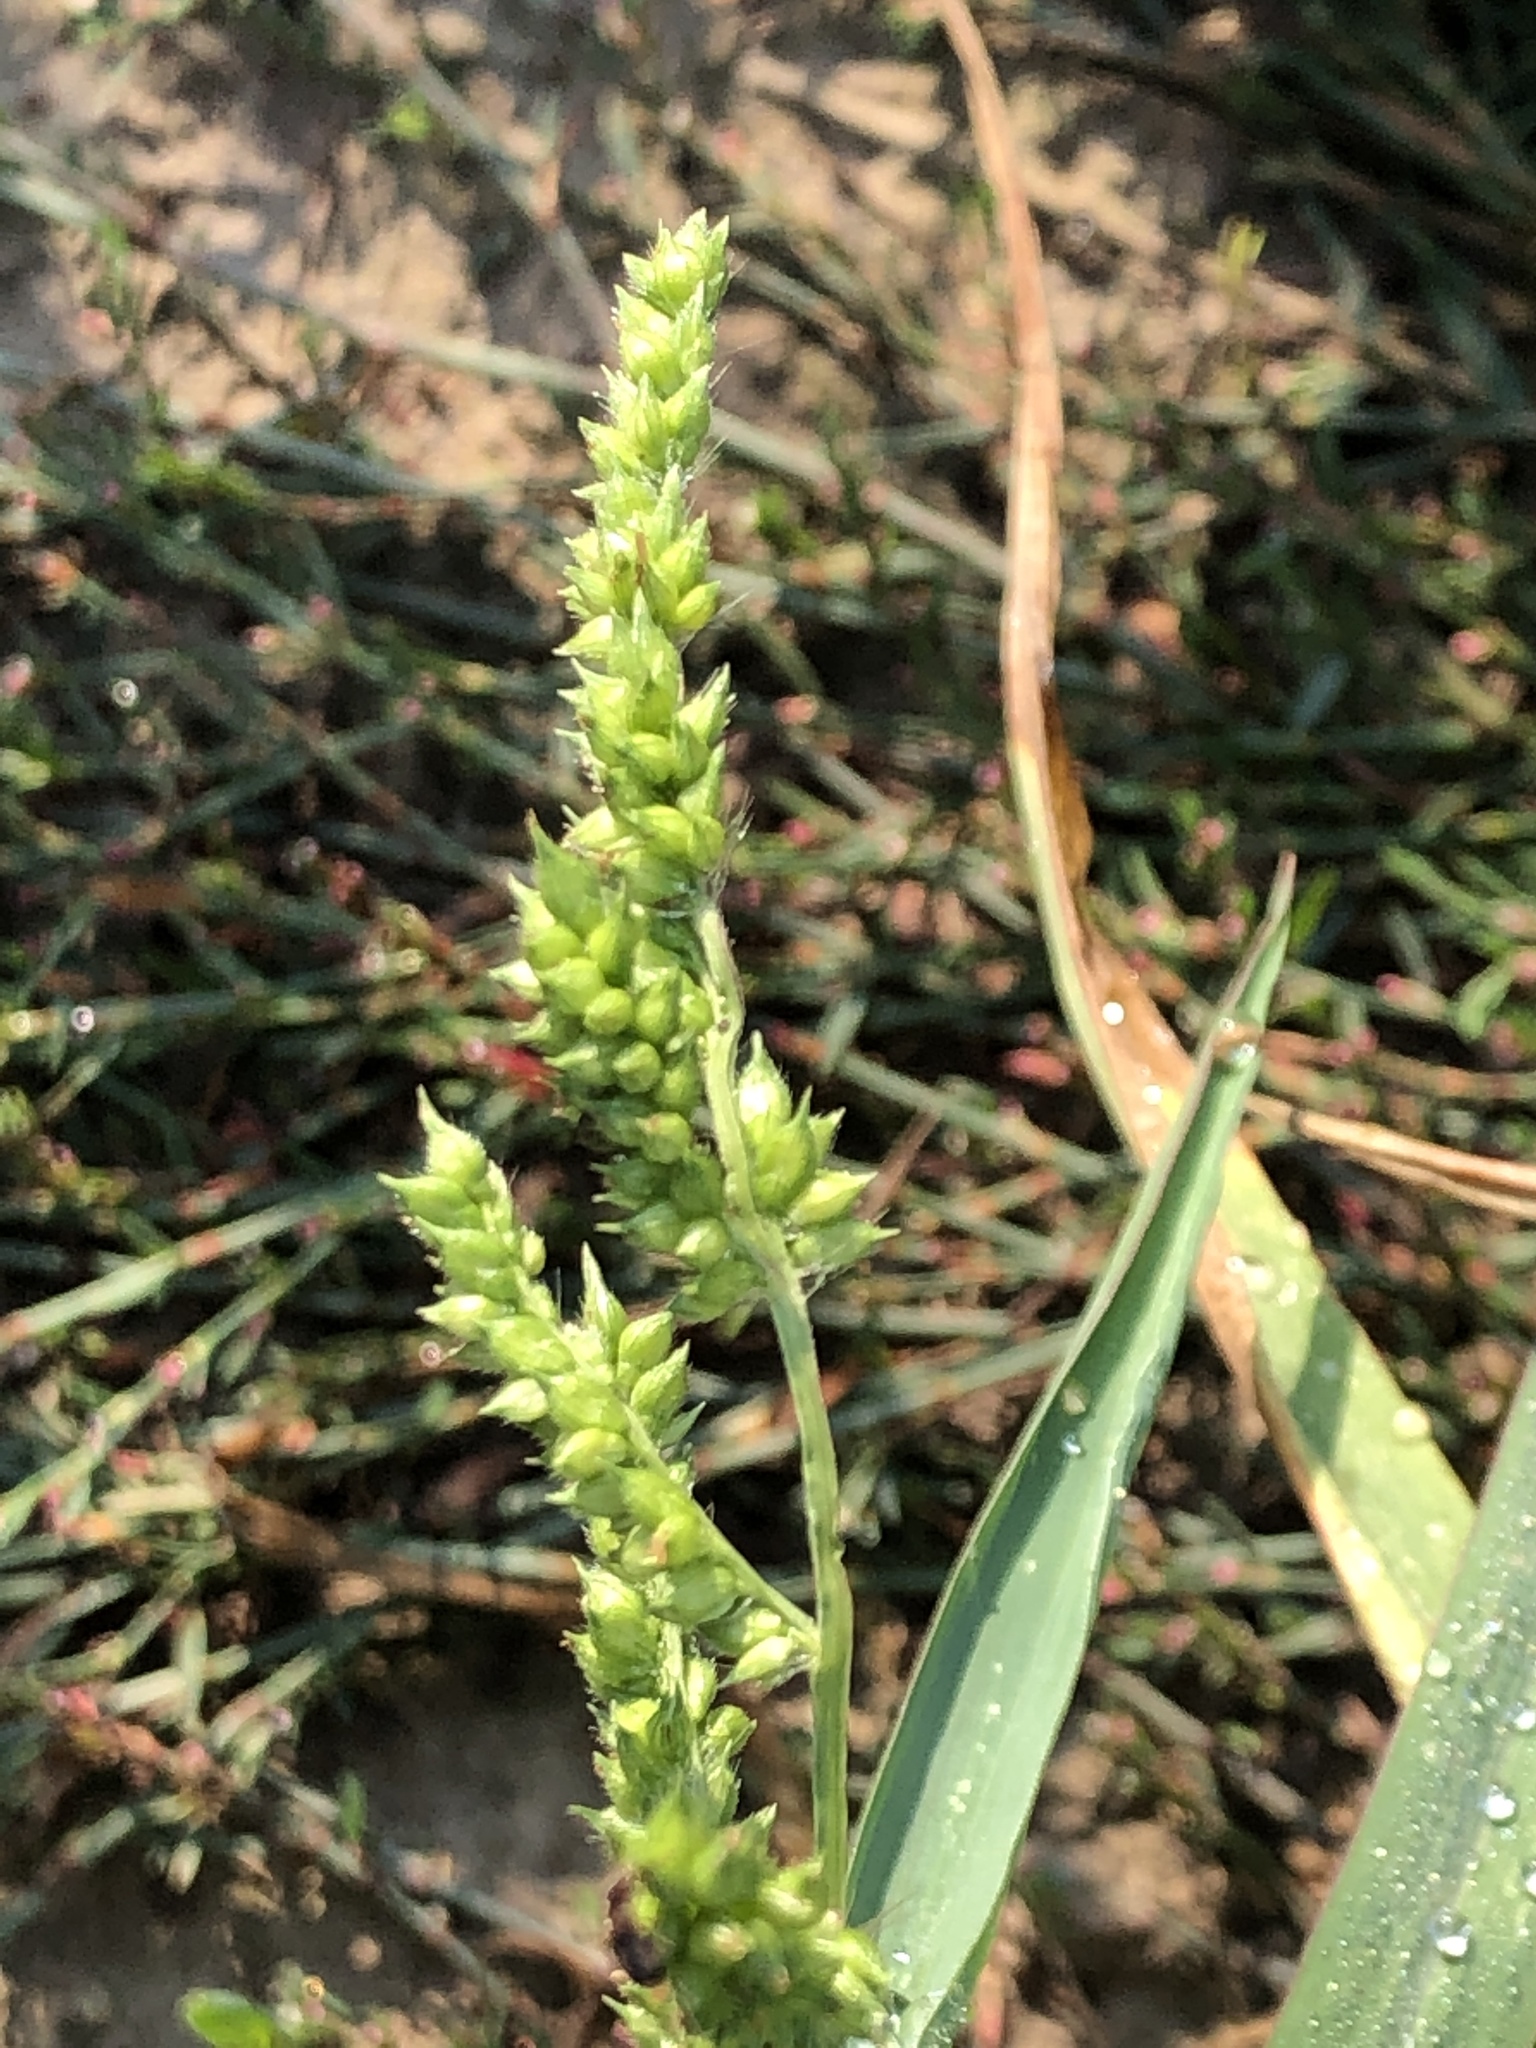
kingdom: Plantae
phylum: Tracheophyta
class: Liliopsida
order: Poales
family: Poaceae
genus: Echinochloa
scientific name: Echinochloa crus-galli
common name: Cockspur
